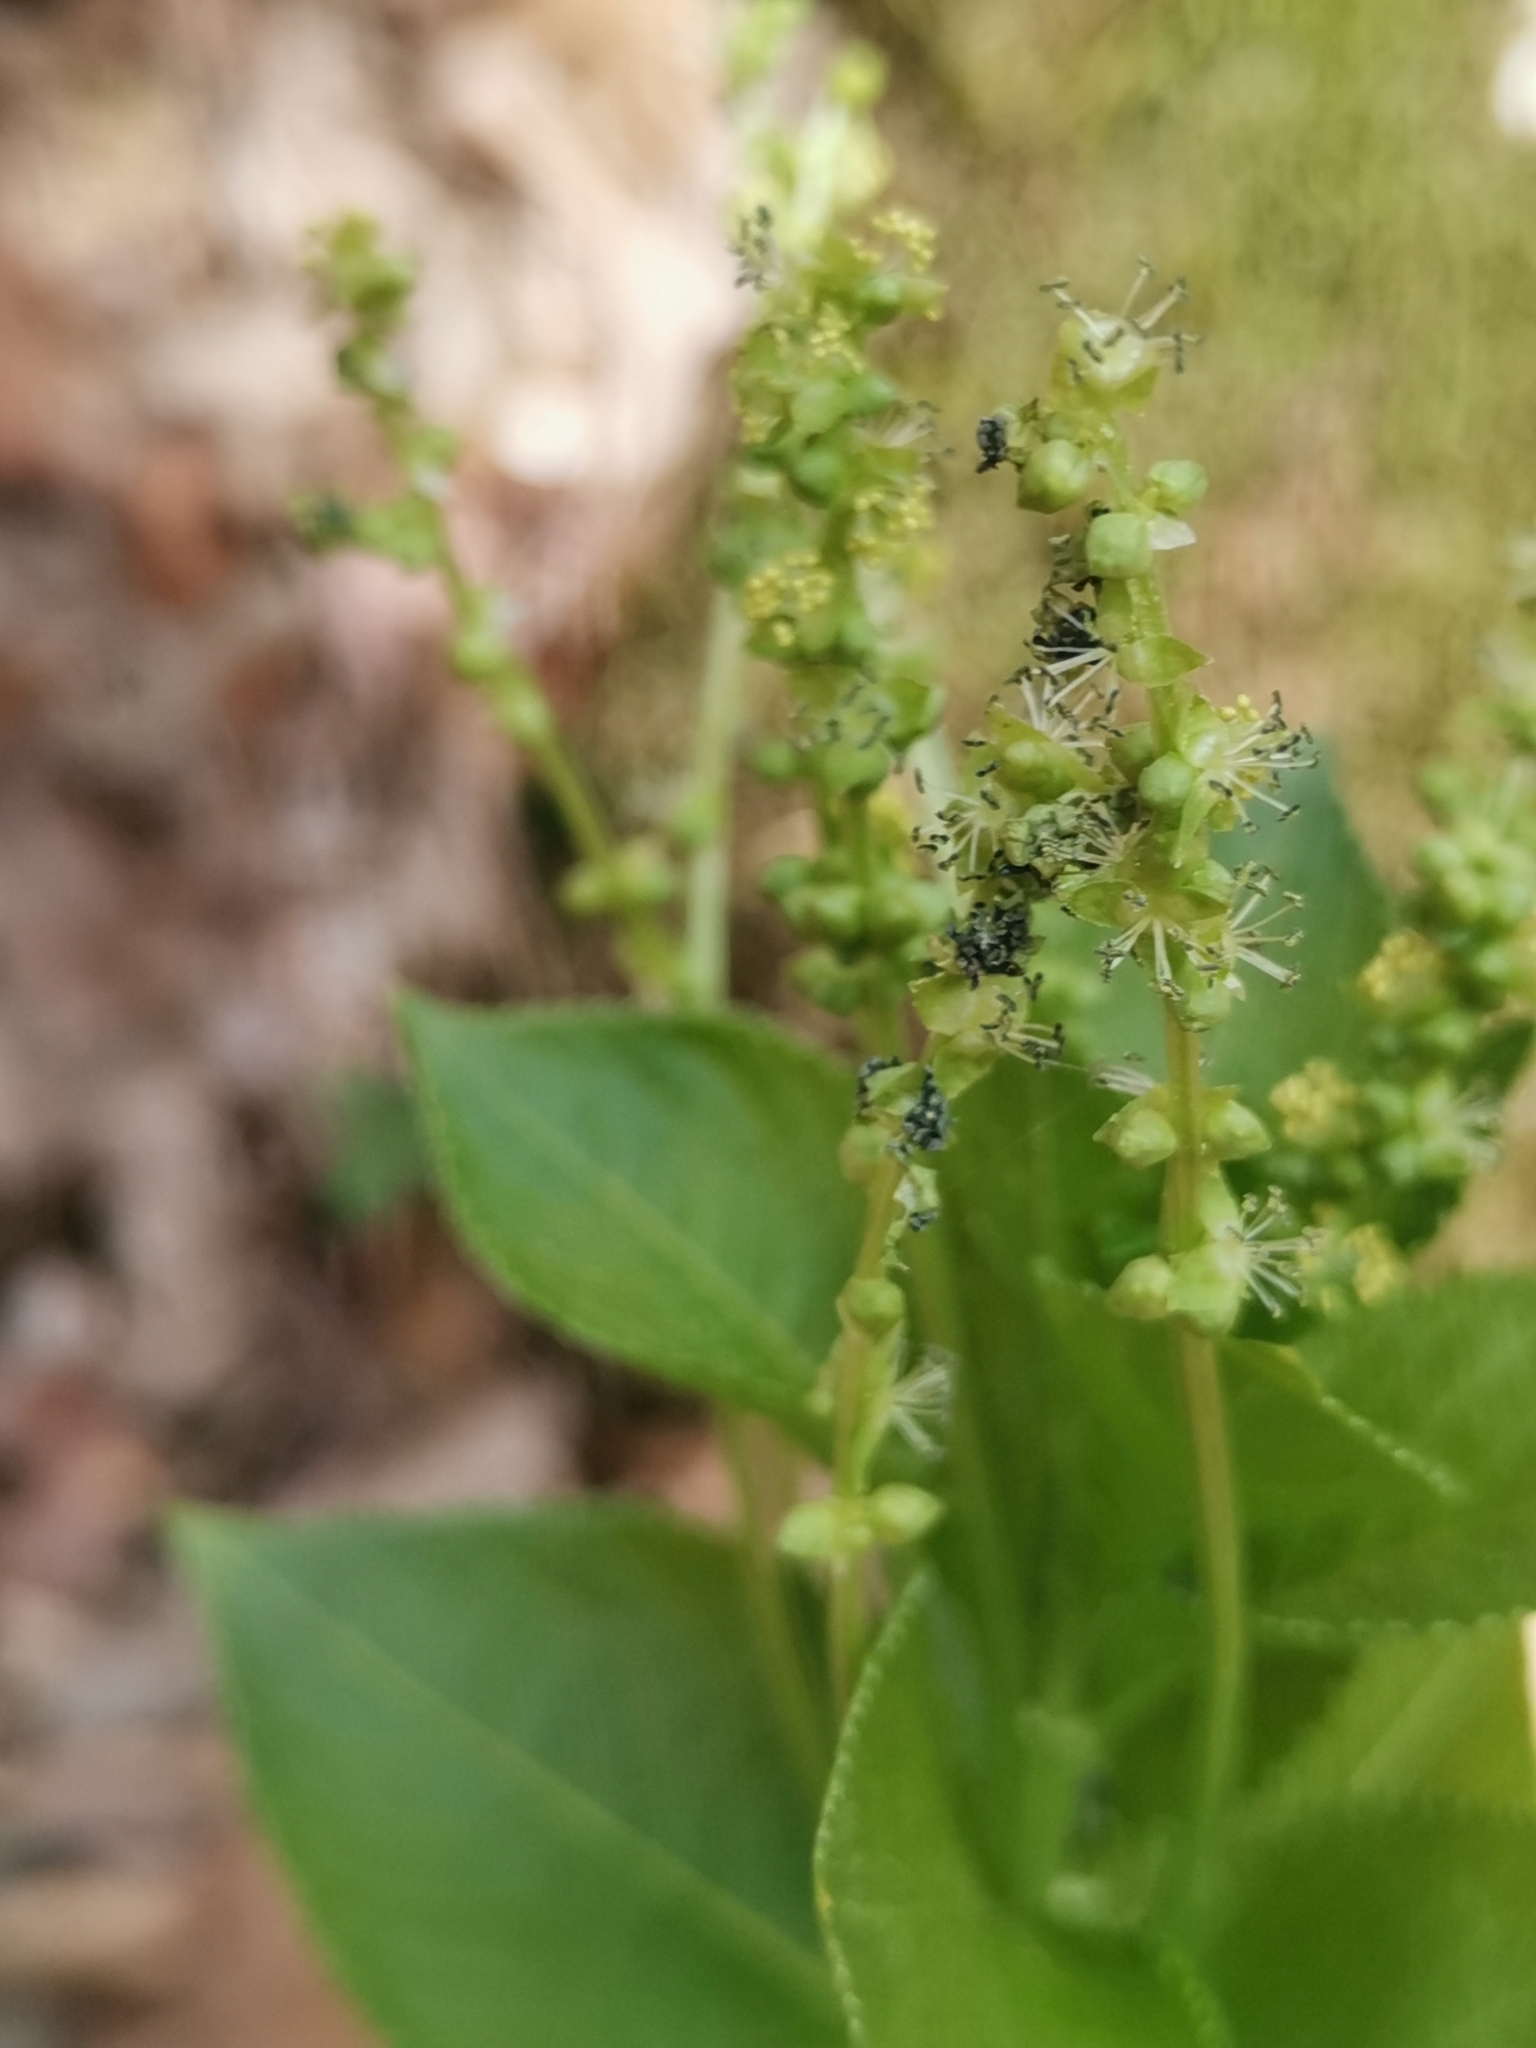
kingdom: Plantae
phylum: Tracheophyta
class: Magnoliopsida
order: Malpighiales
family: Euphorbiaceae
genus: Mercurialis
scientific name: Mercurialis ovata
